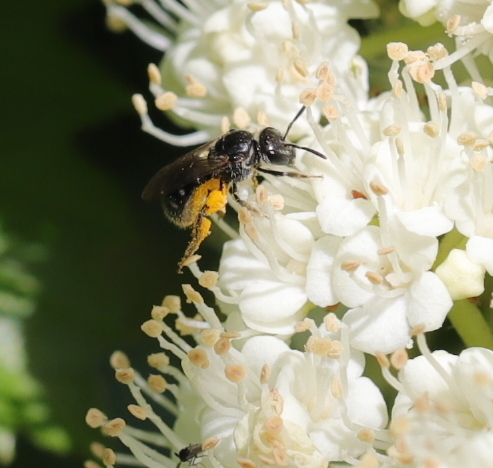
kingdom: Animalia
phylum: Arthropoda
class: Insecta
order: Hymenoptera
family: Halictidae
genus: Lasioglossum
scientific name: Lasioglossum pectorale
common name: Rugose-chested sweat bee
